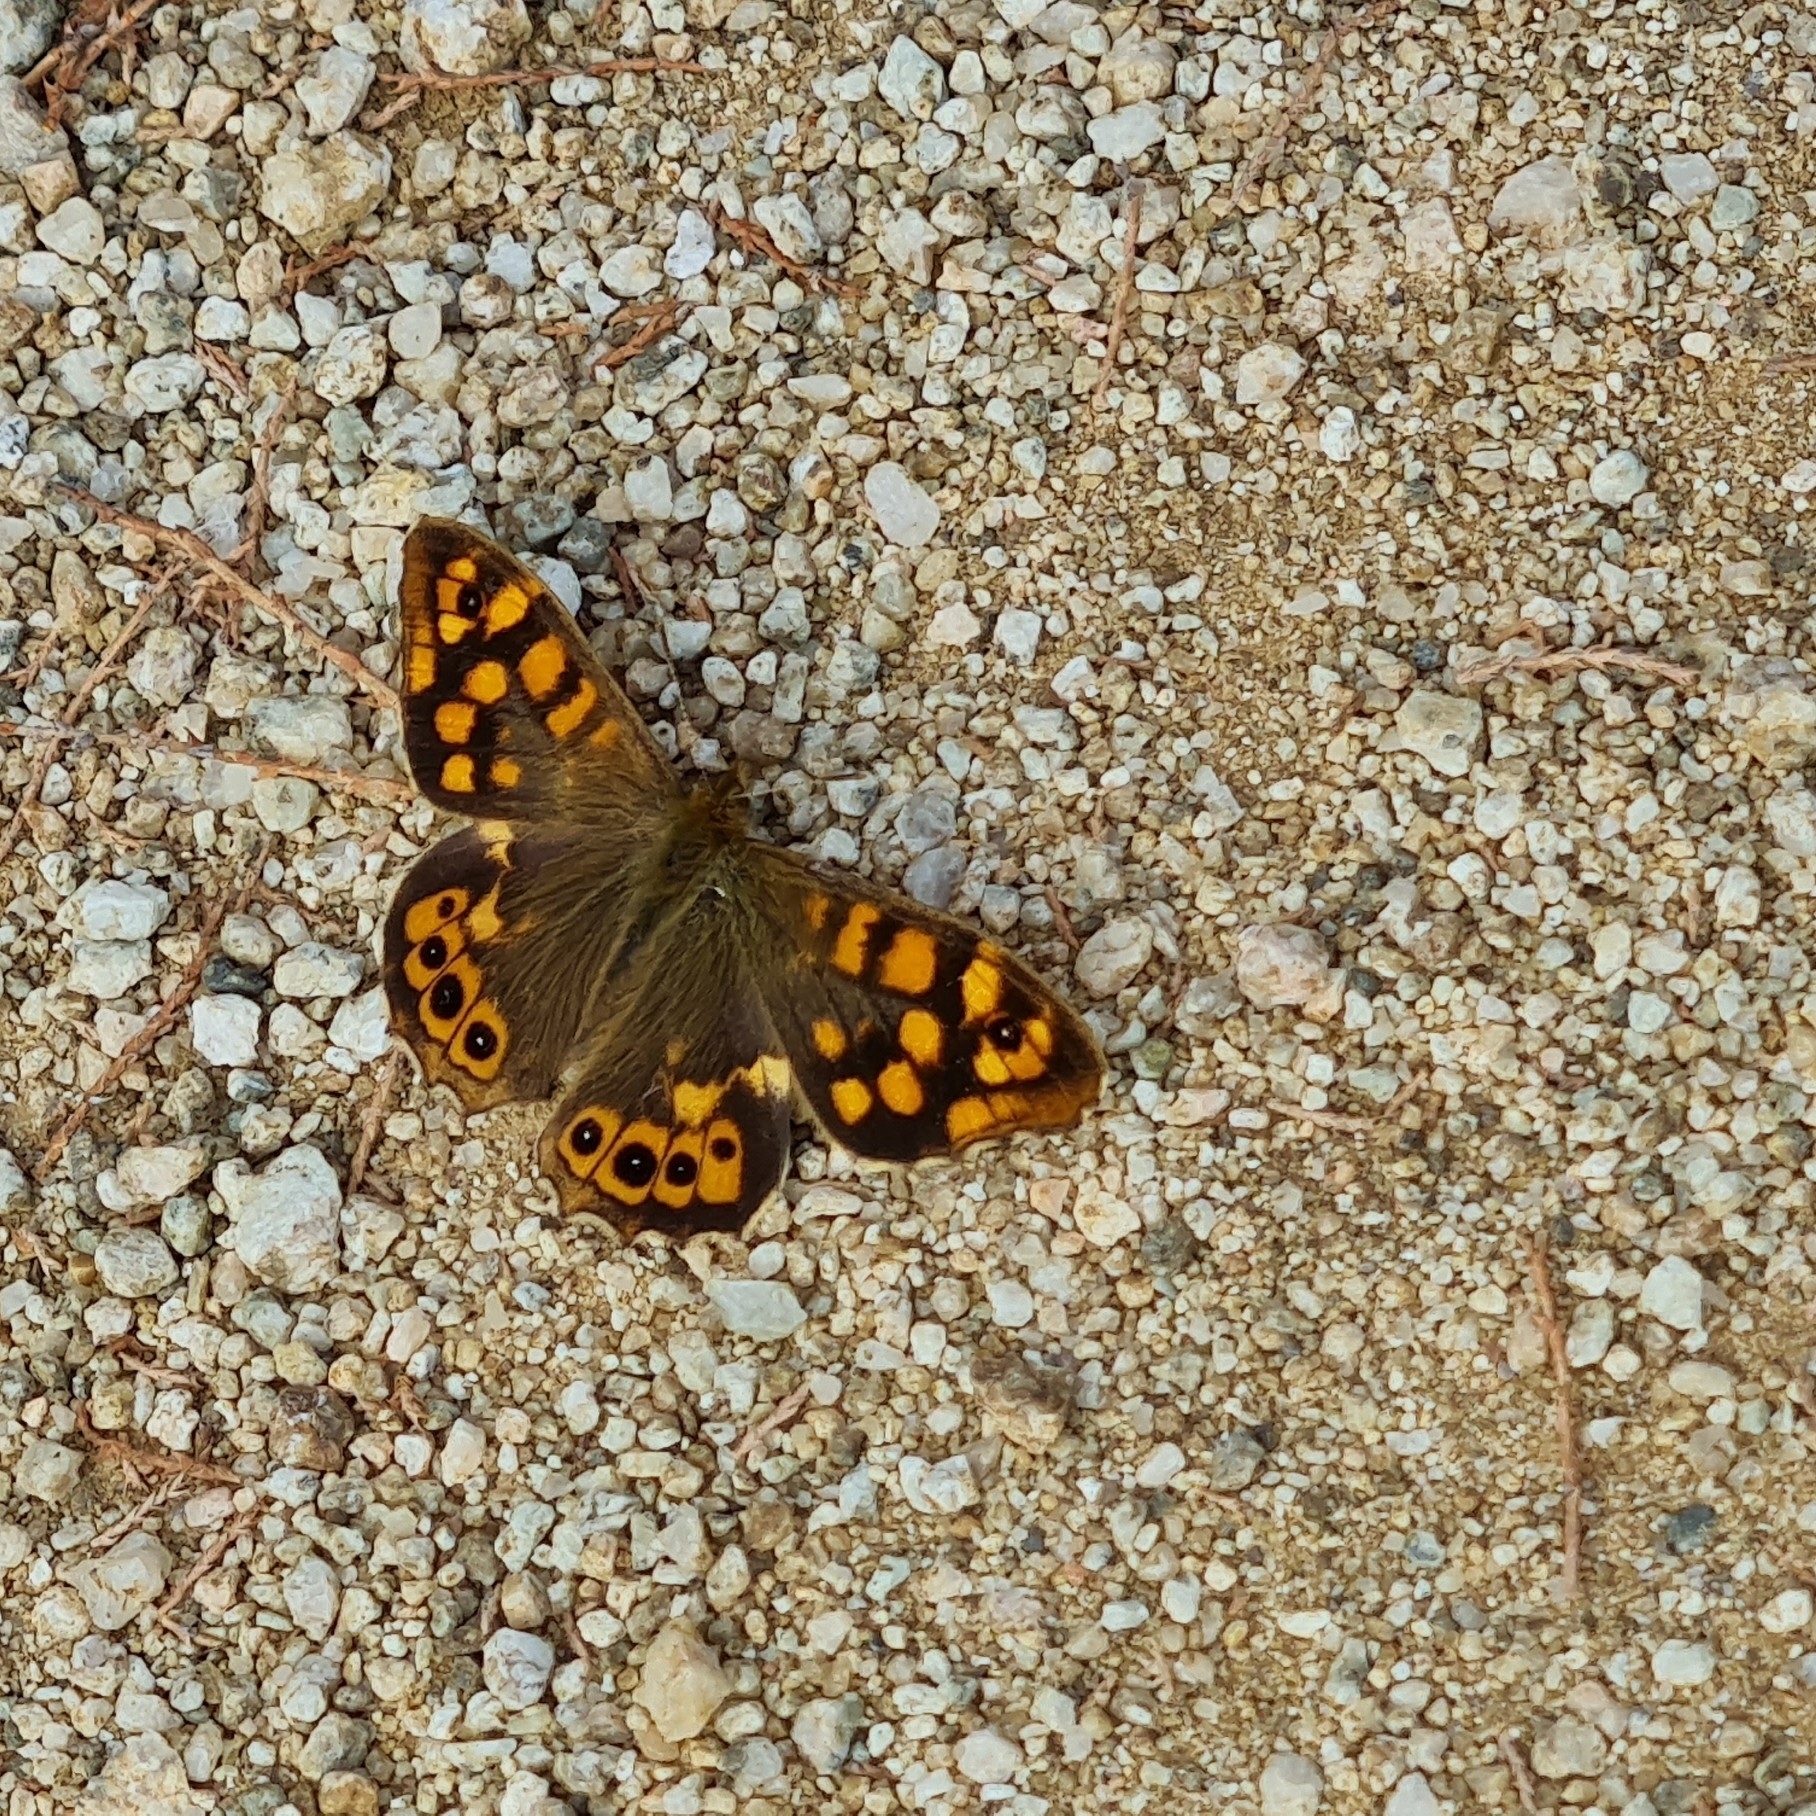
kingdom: Animalia
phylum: Arthropoda
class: Insecta
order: Lepidoptera
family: Nymphalidae
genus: Pararge
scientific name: Pararge aegeria
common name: Speckled wood
